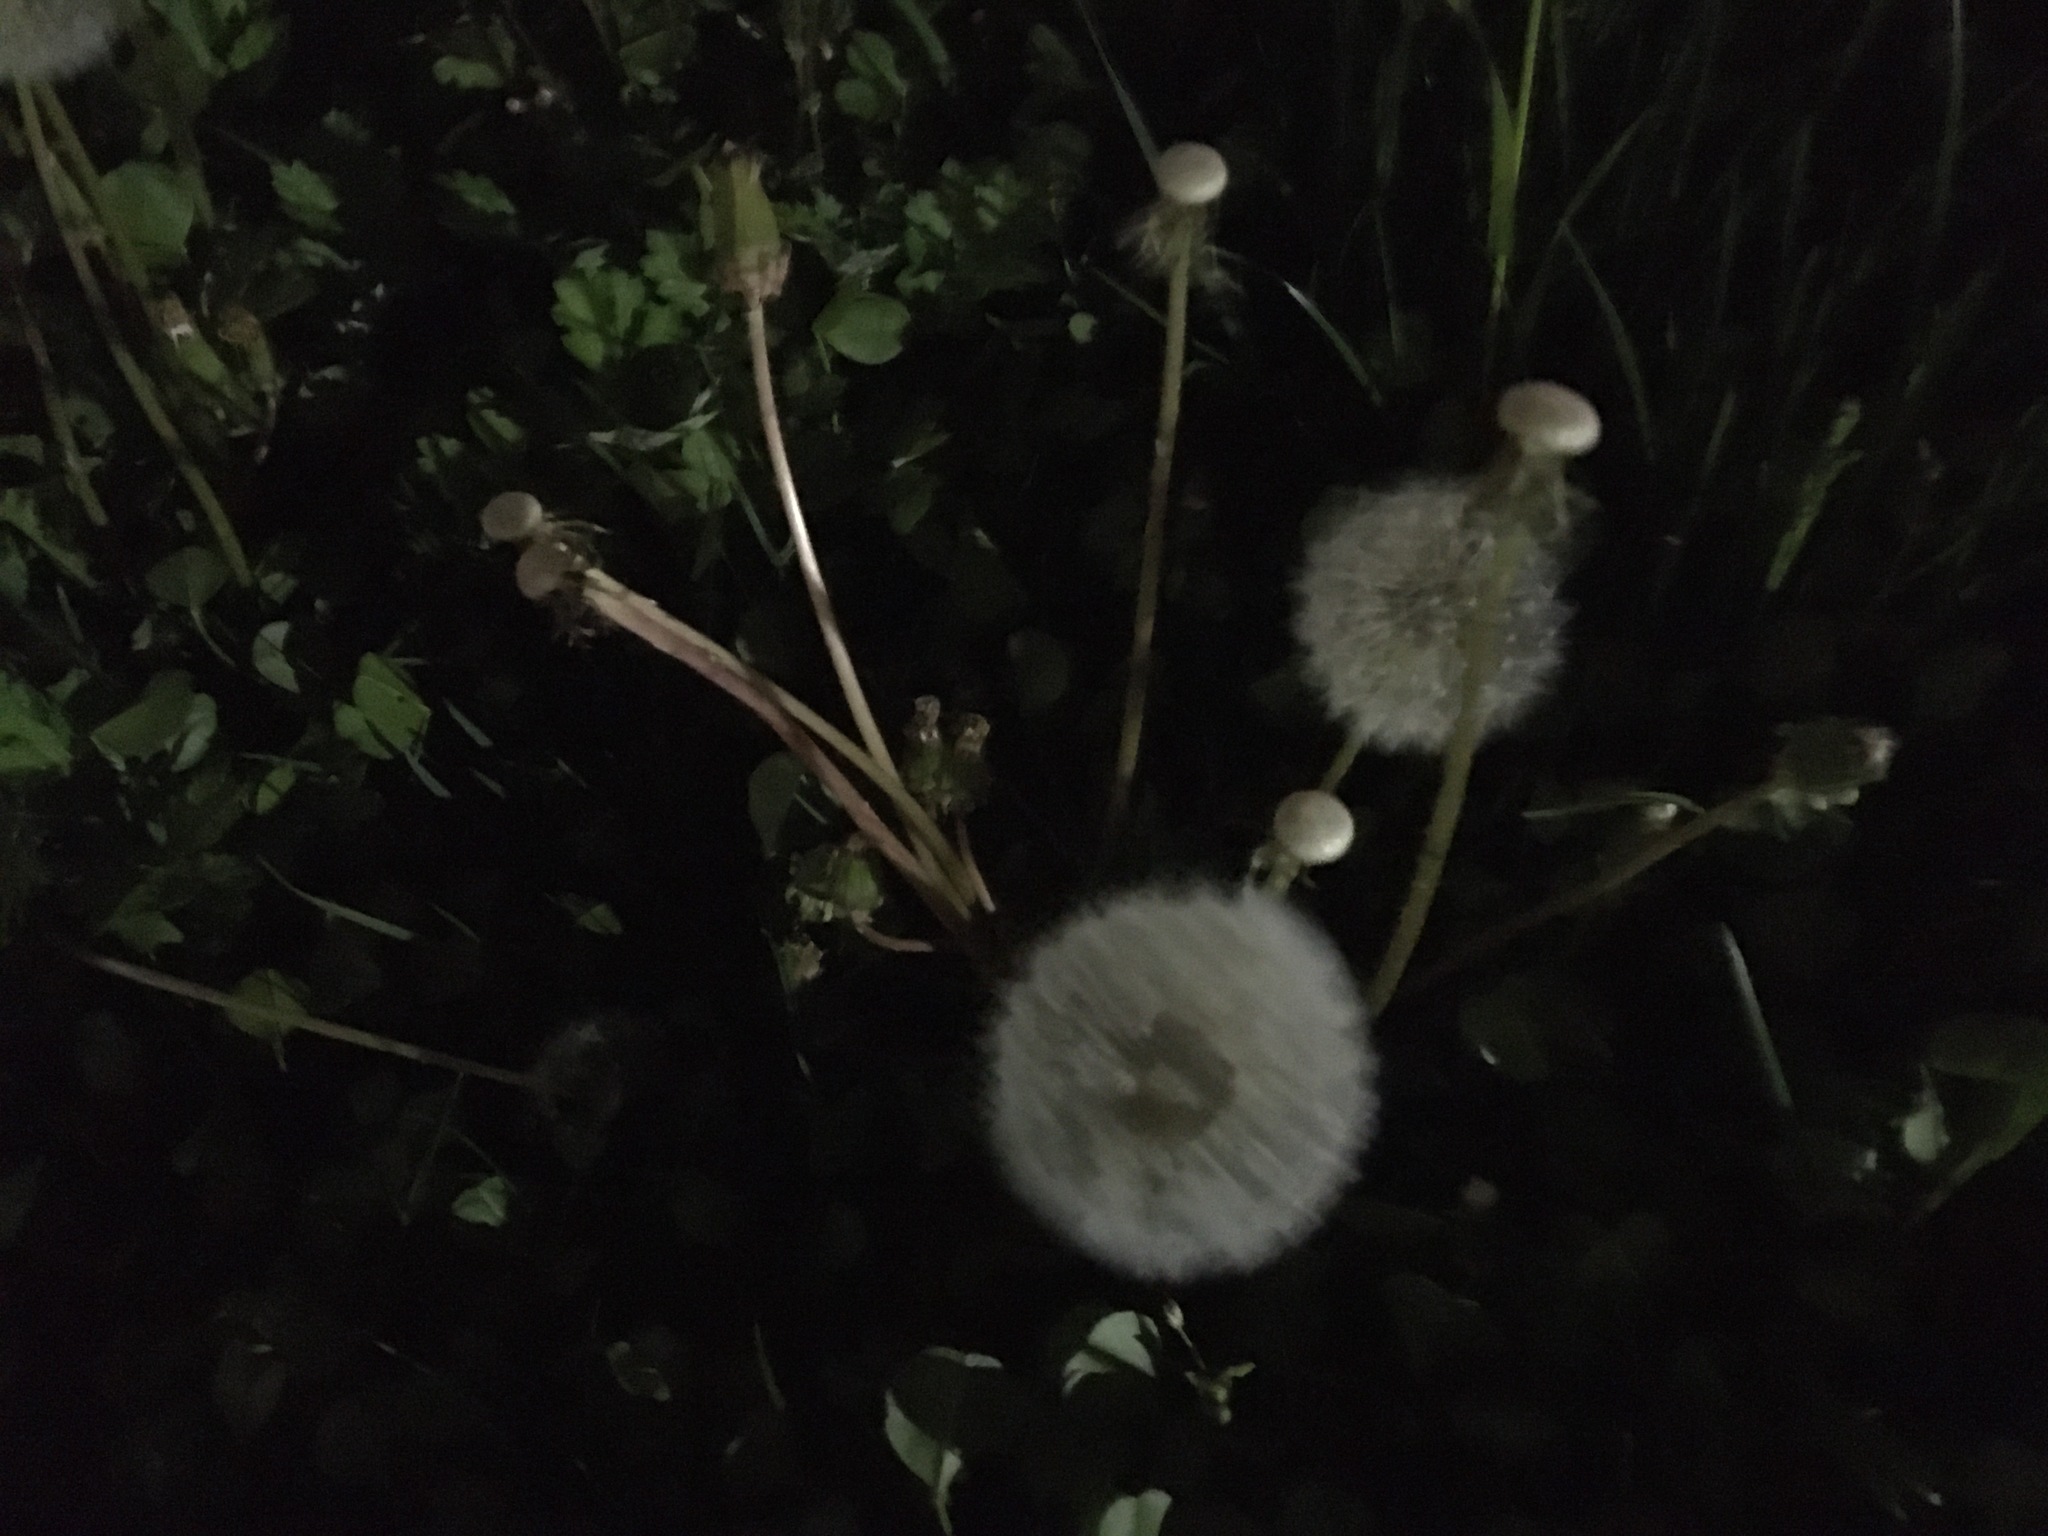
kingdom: Plantae
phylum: Tracheophyta
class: Magnoliopsida
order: Asterales
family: Asteraceae
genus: Taraxacum
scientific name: Taraxacum officinale
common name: Common dandelion
